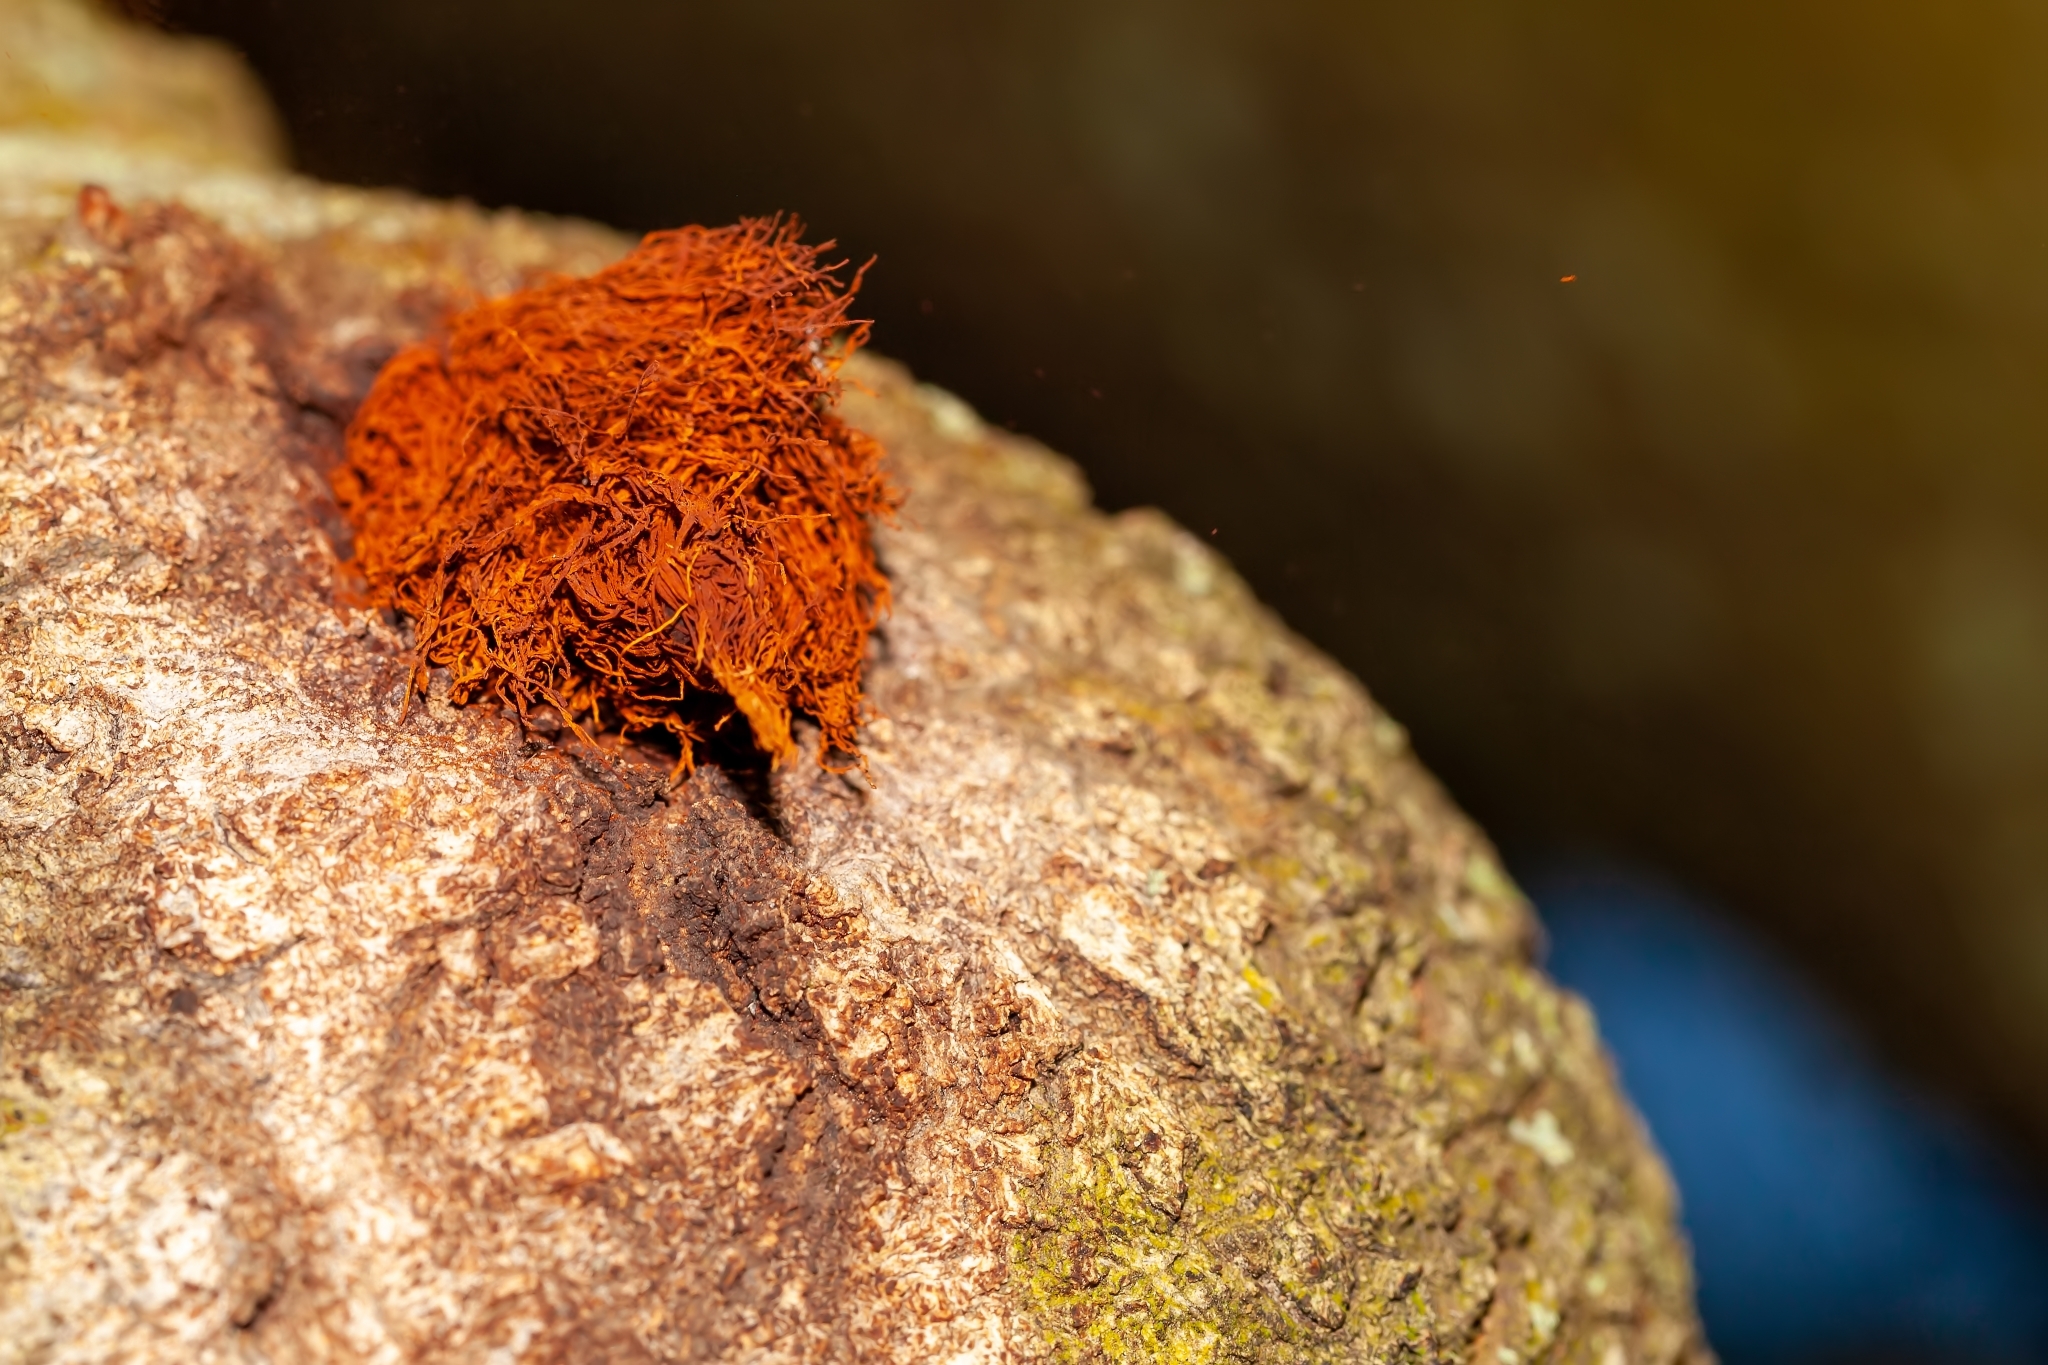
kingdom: Fungi
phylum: Basidiomycota
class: Agaricomycetes
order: Hymenochaetales
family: Hymenochaetaceae
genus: Inonotus
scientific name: Inonotus rickii
